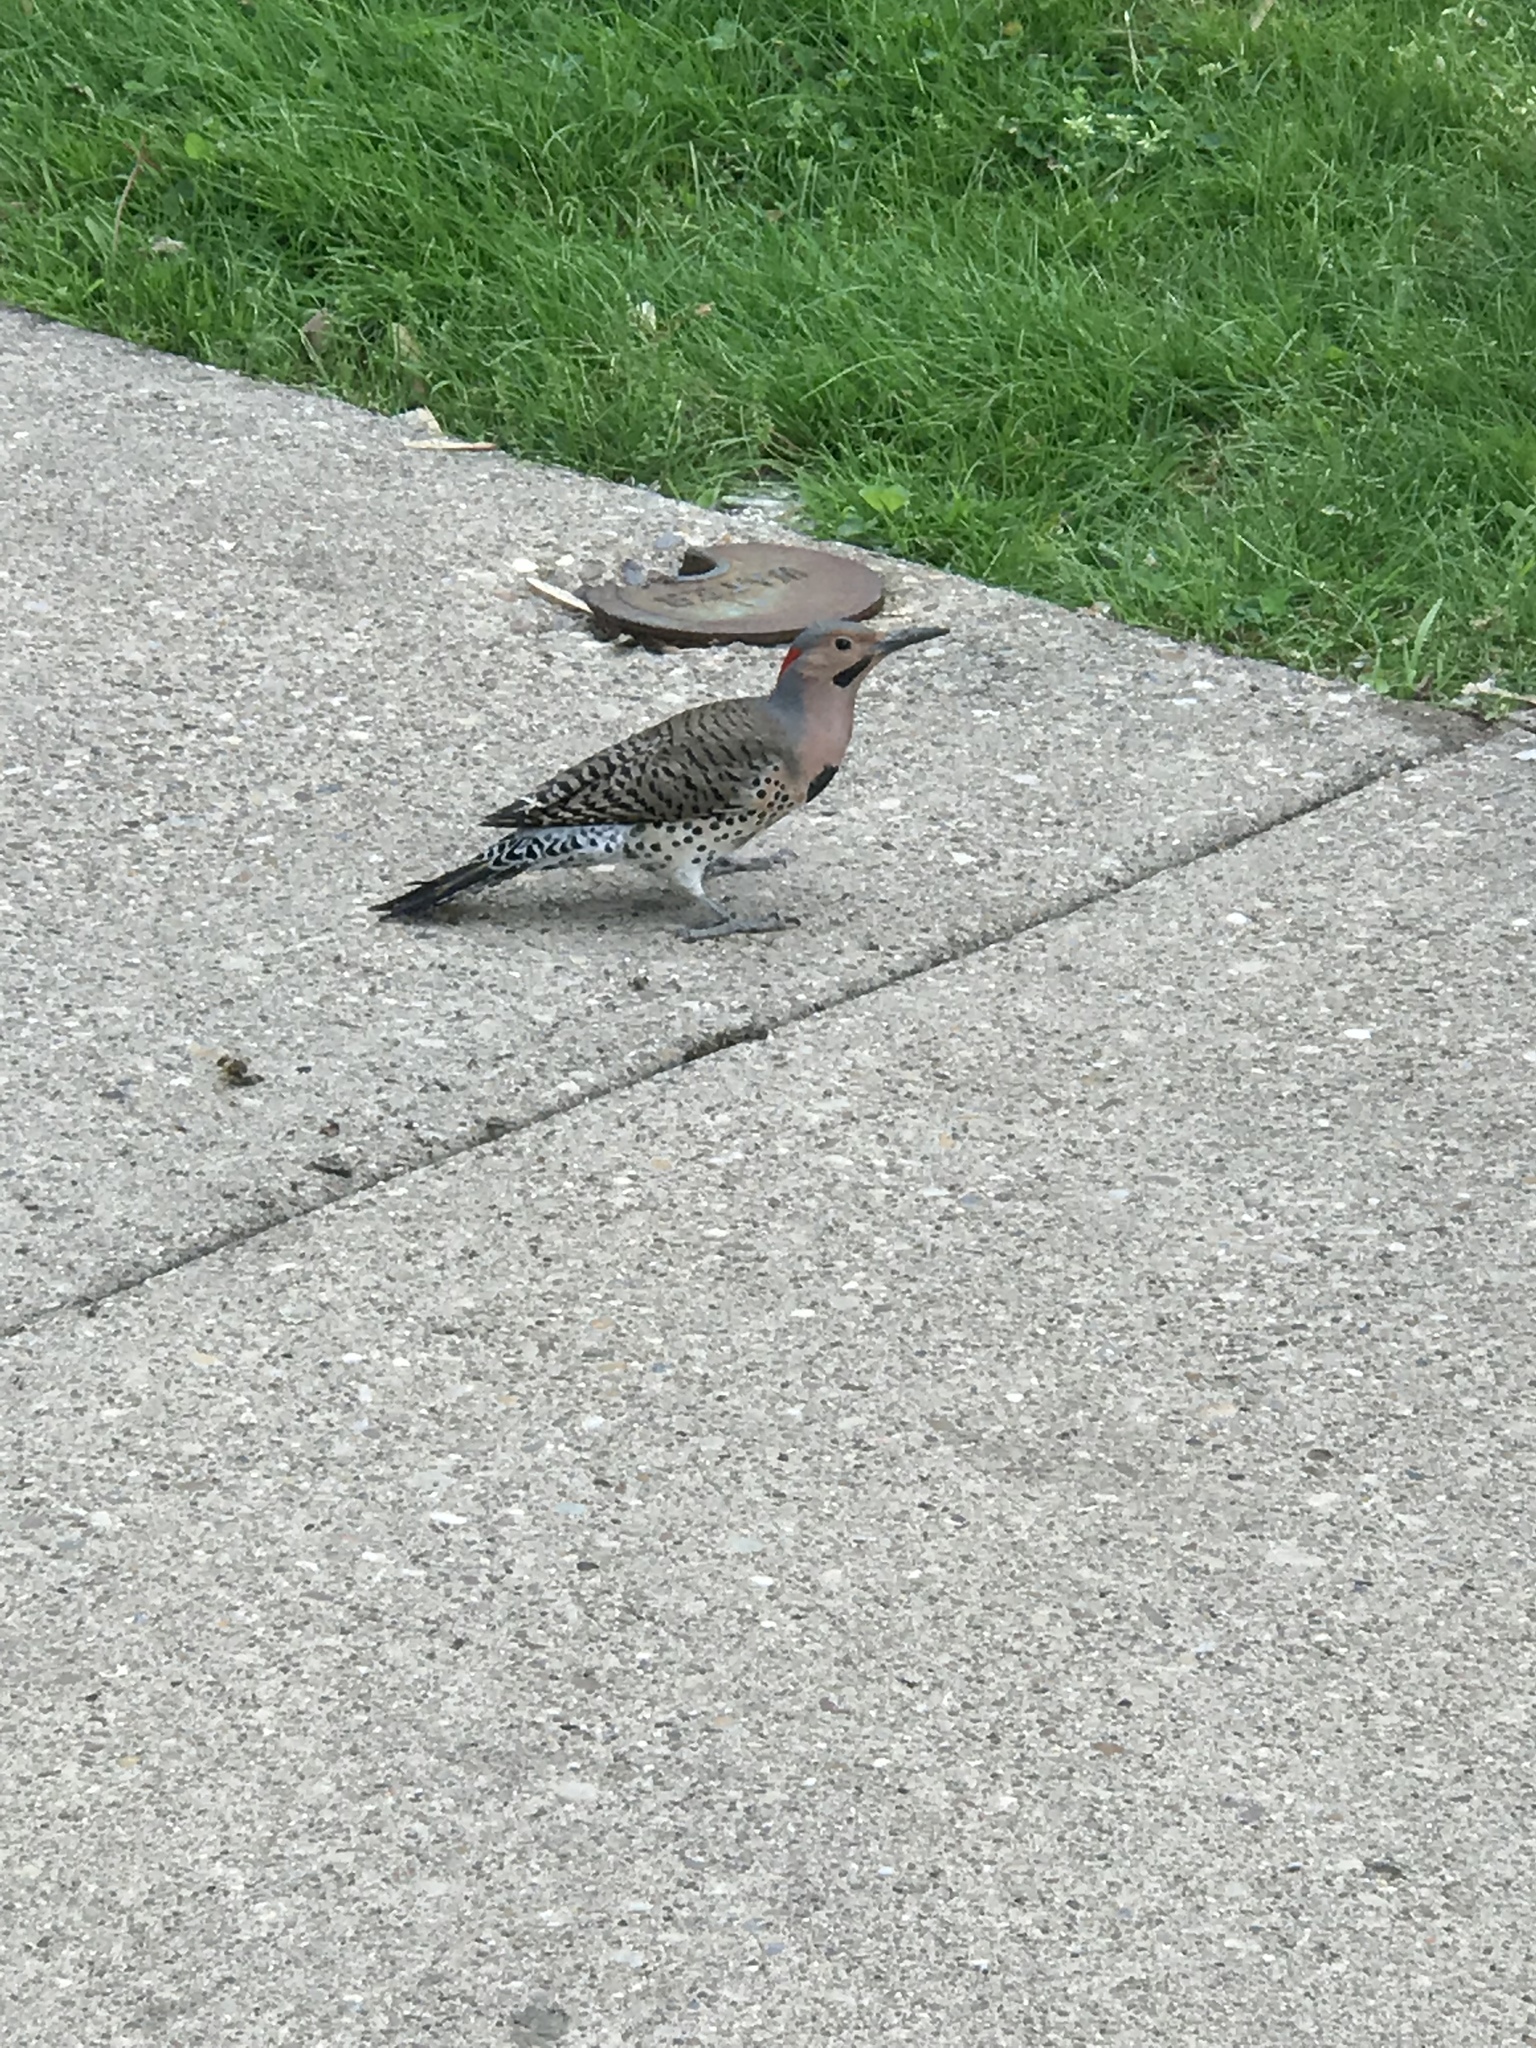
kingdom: Animalia
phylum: Chordata
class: Aves
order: Piciformes
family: Picidae
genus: Colaptes
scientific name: Colaptes auratus
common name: Northern flicker
